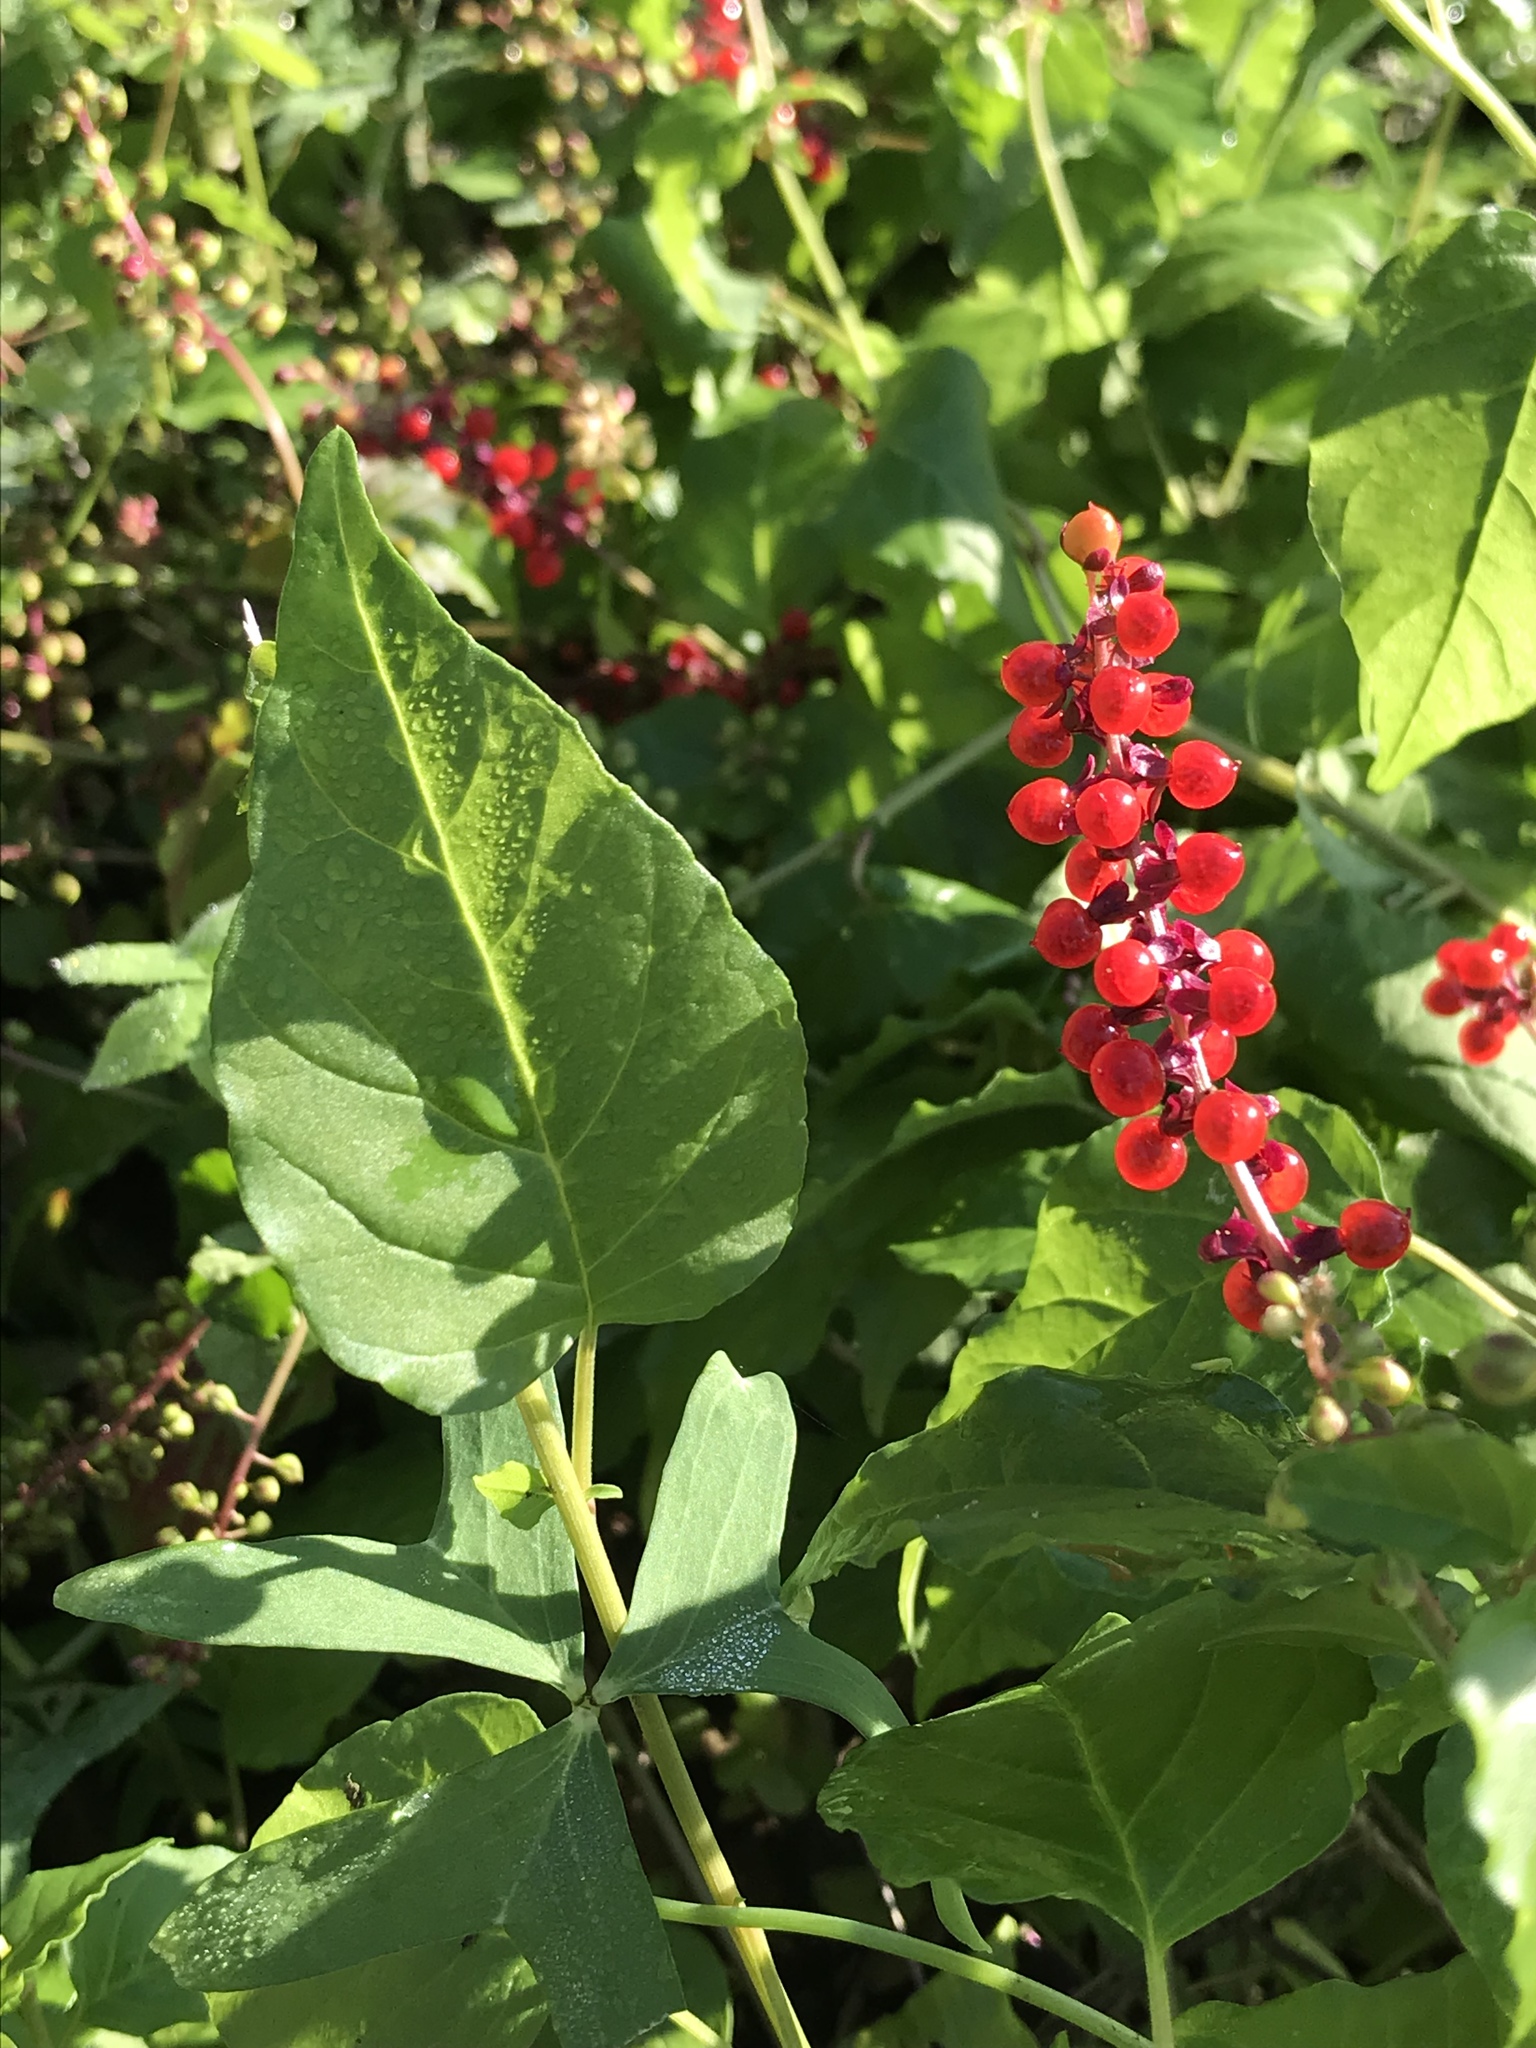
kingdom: Plantae
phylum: Tracheophyta
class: Magnoliopsida
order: Caryophyllales
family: Phytolaccaceae
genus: Rivina
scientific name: Rivina humilis
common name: Rougeplant
